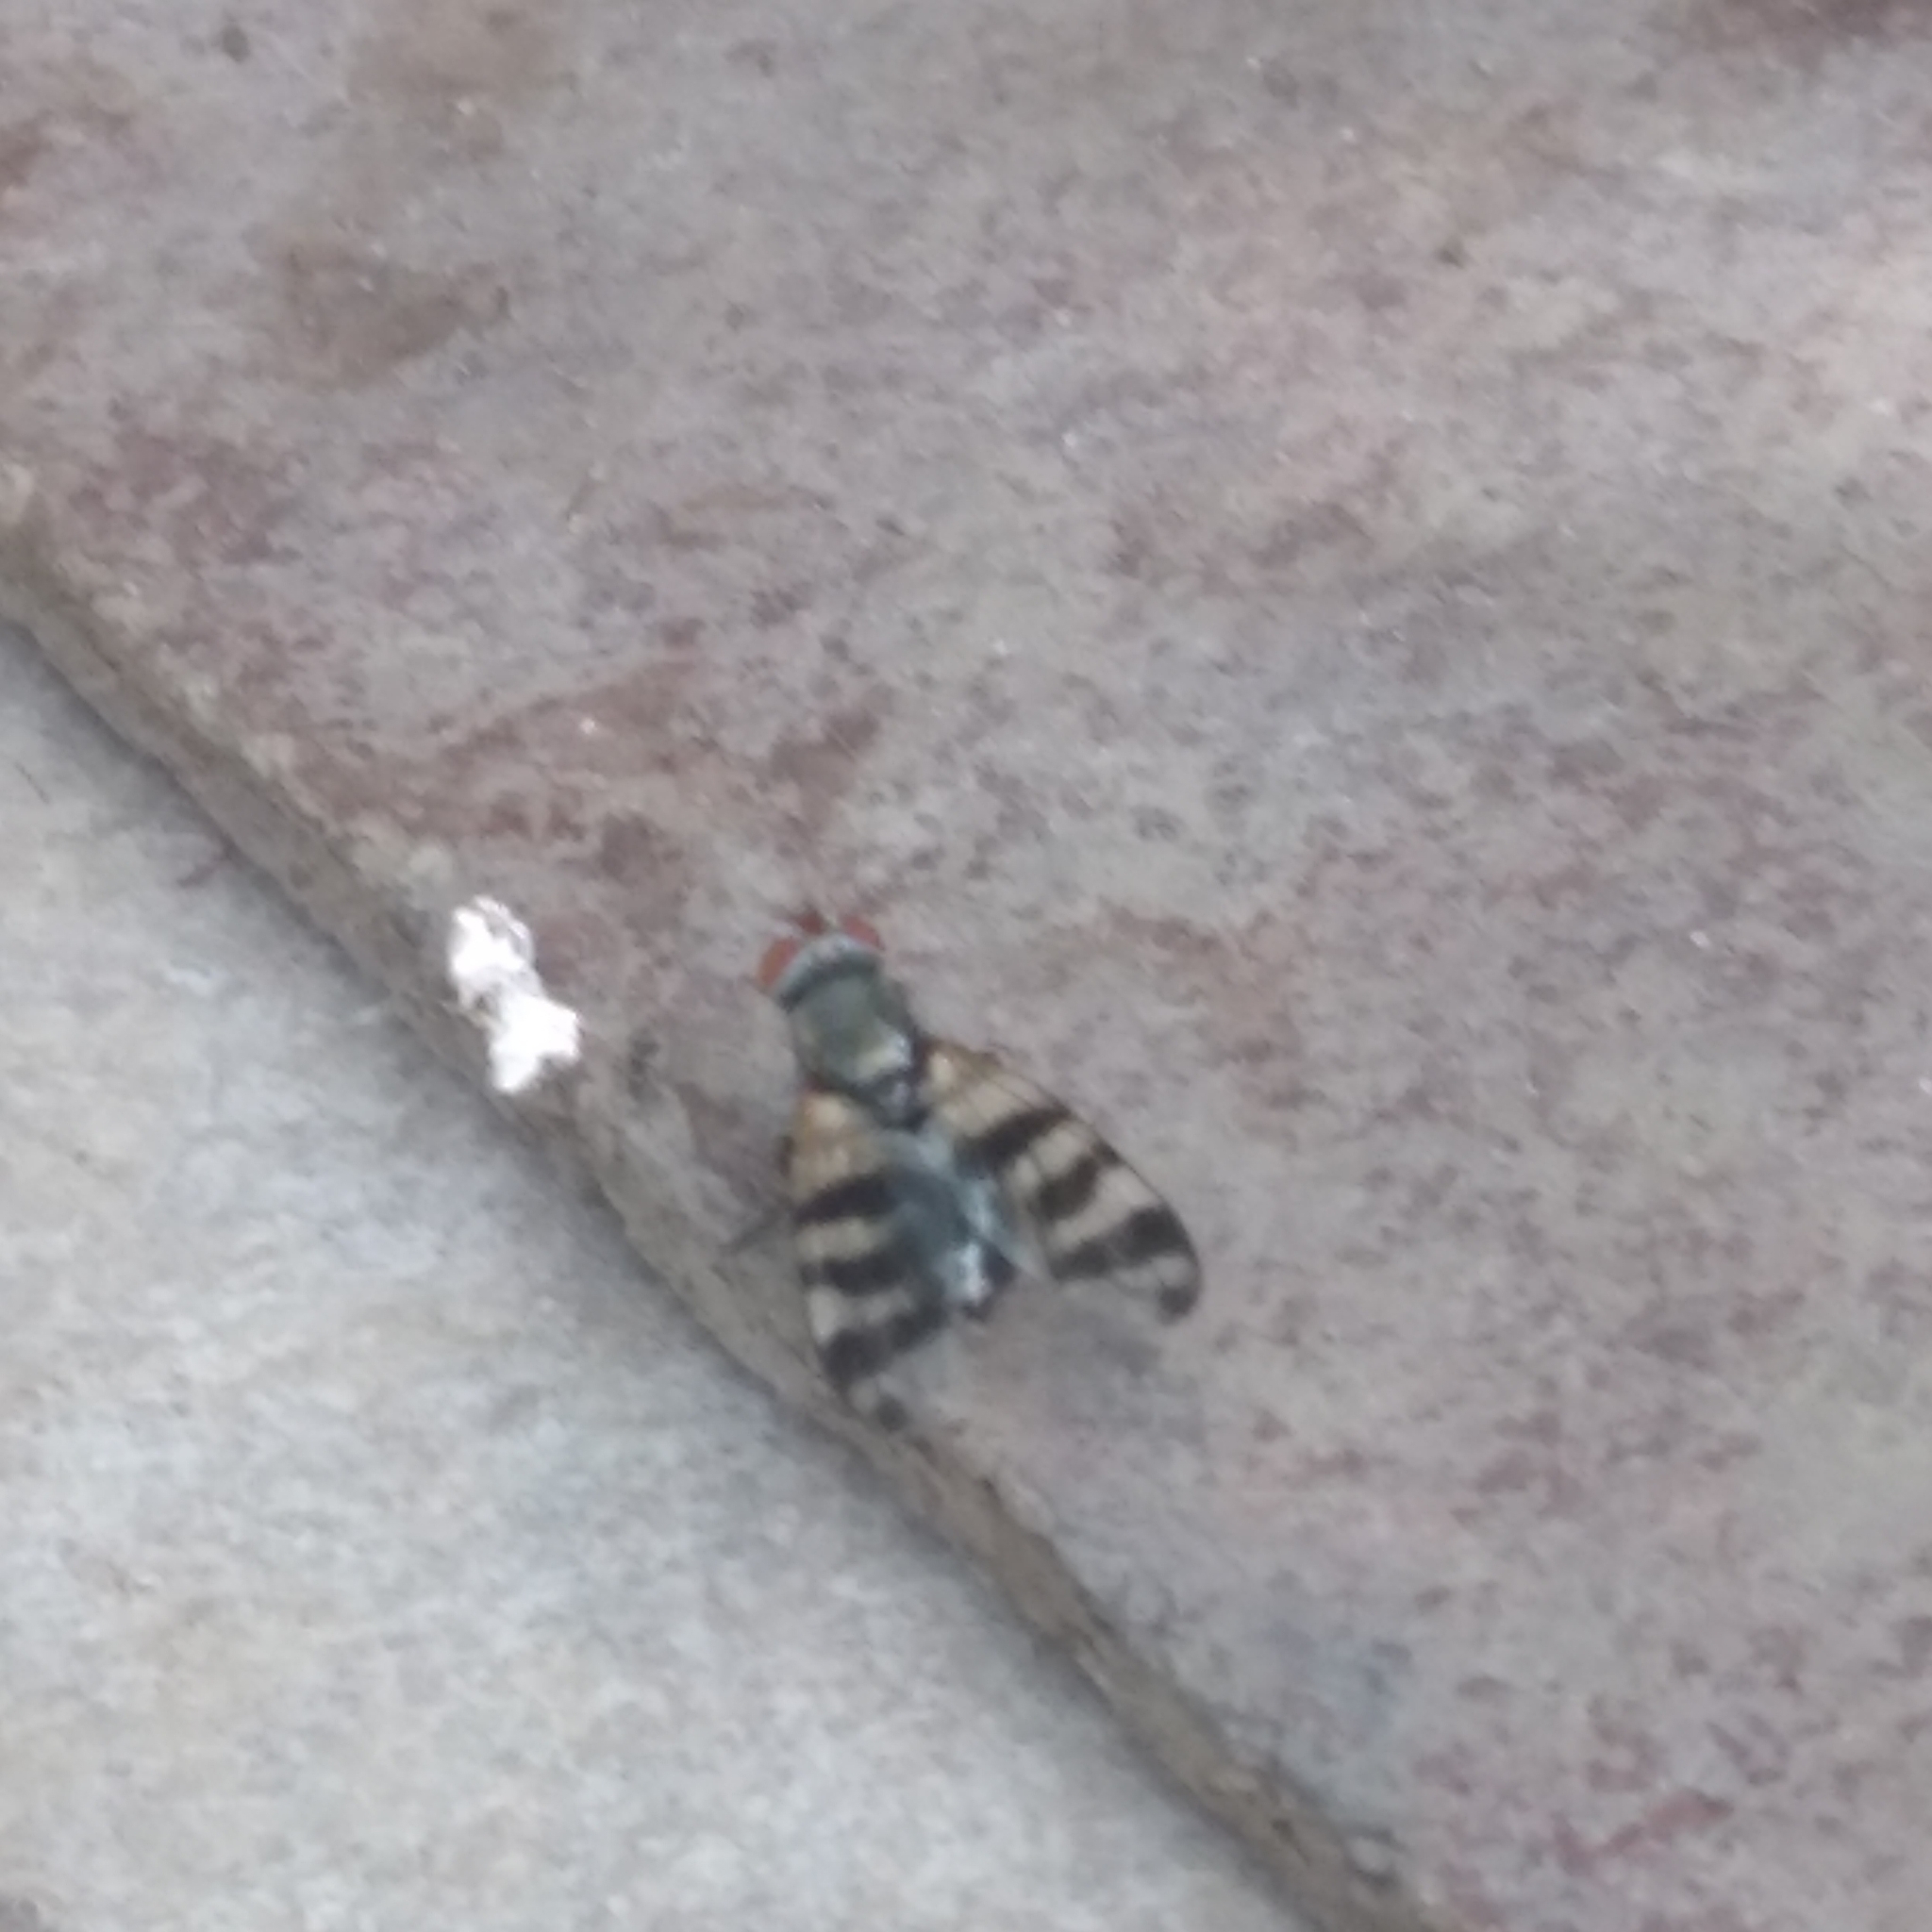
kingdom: Animalia
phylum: Arthropoda
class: Insecta
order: Diptera
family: Ulidiidae
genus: Ceroxys
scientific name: Ceroxys urticae
